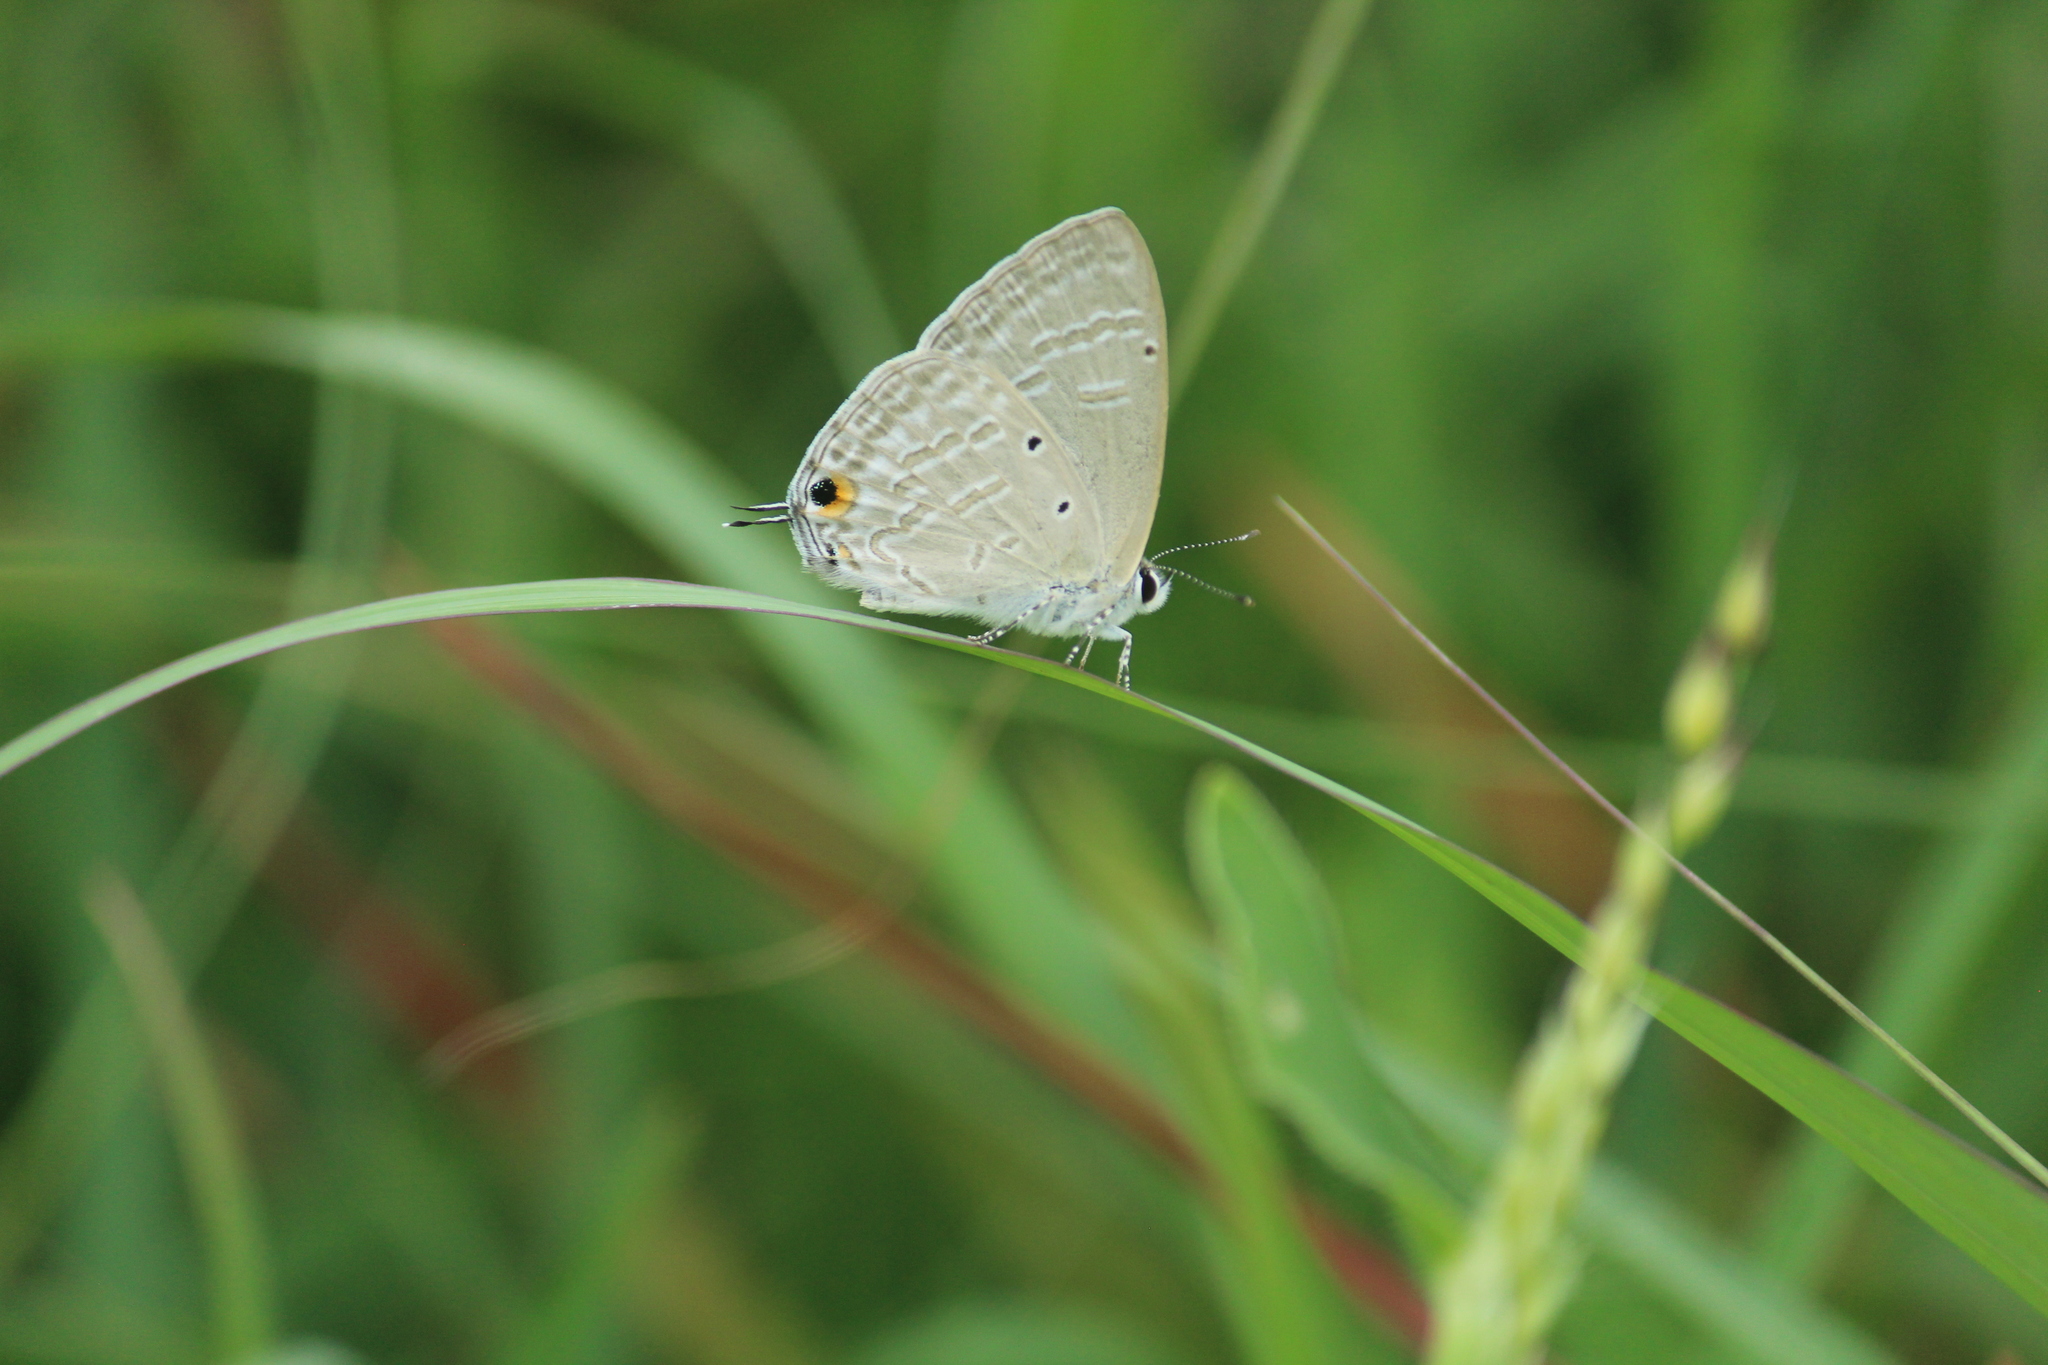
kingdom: Animalia
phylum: Arthropoda
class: Insecta
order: Lepidoptera
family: Lycaenidae
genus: Catochrysops
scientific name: Catochrysops strabo
